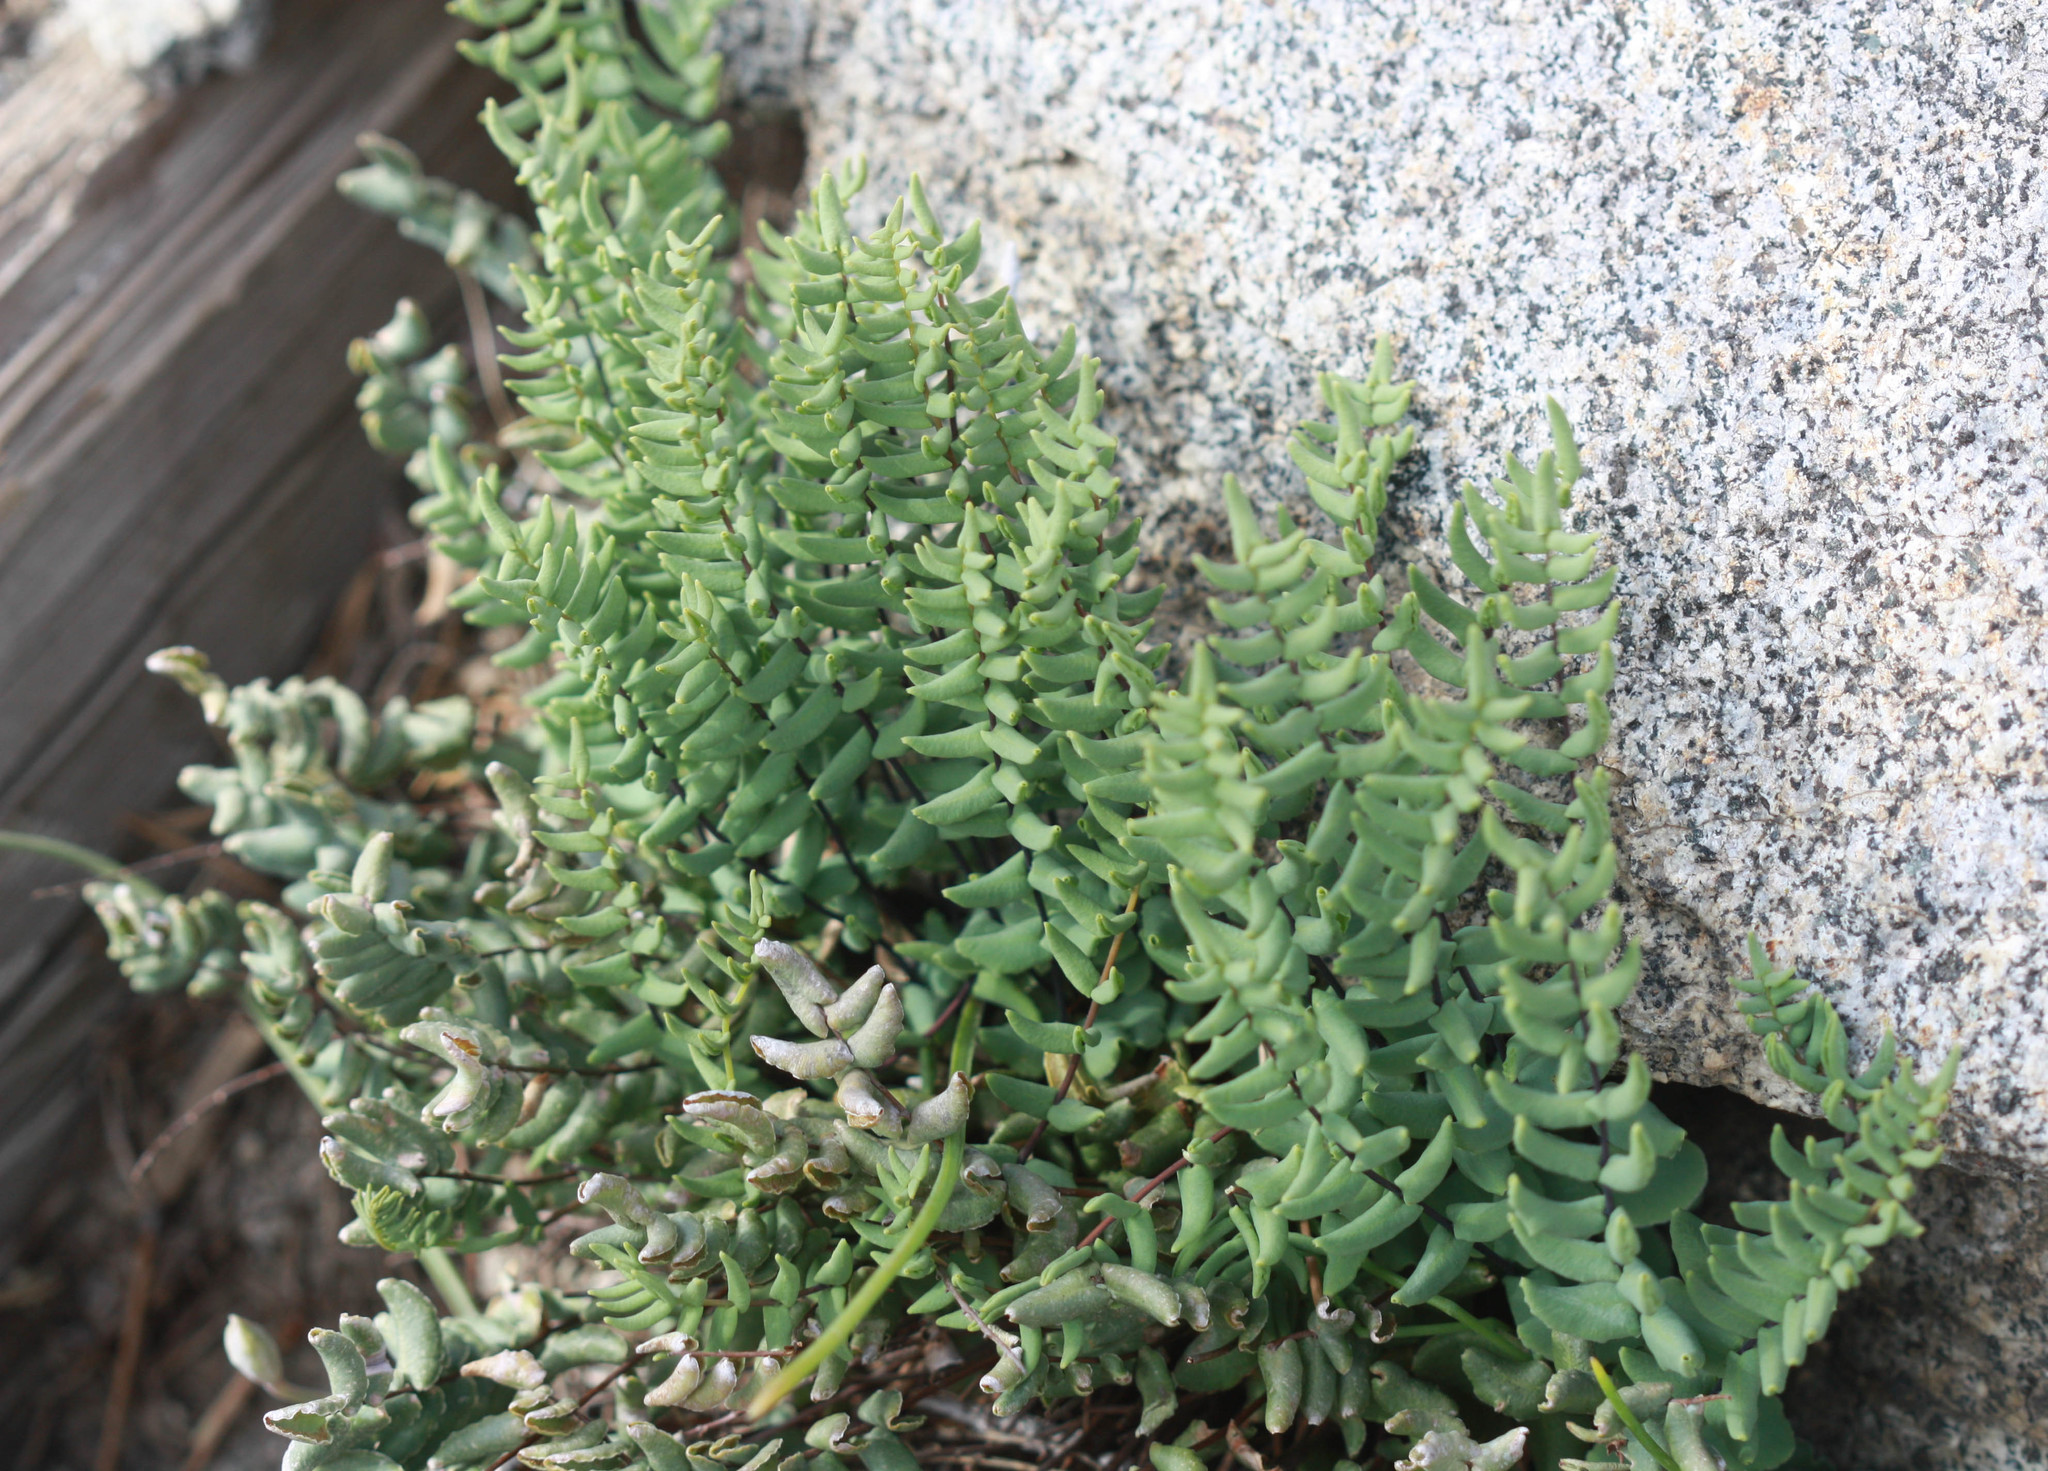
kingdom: Plantae
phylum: Tracheophyta
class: Polypodiopsida
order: Polypodiales
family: Pteridaceae
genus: Pellaea
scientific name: Pellaea bridgesii
